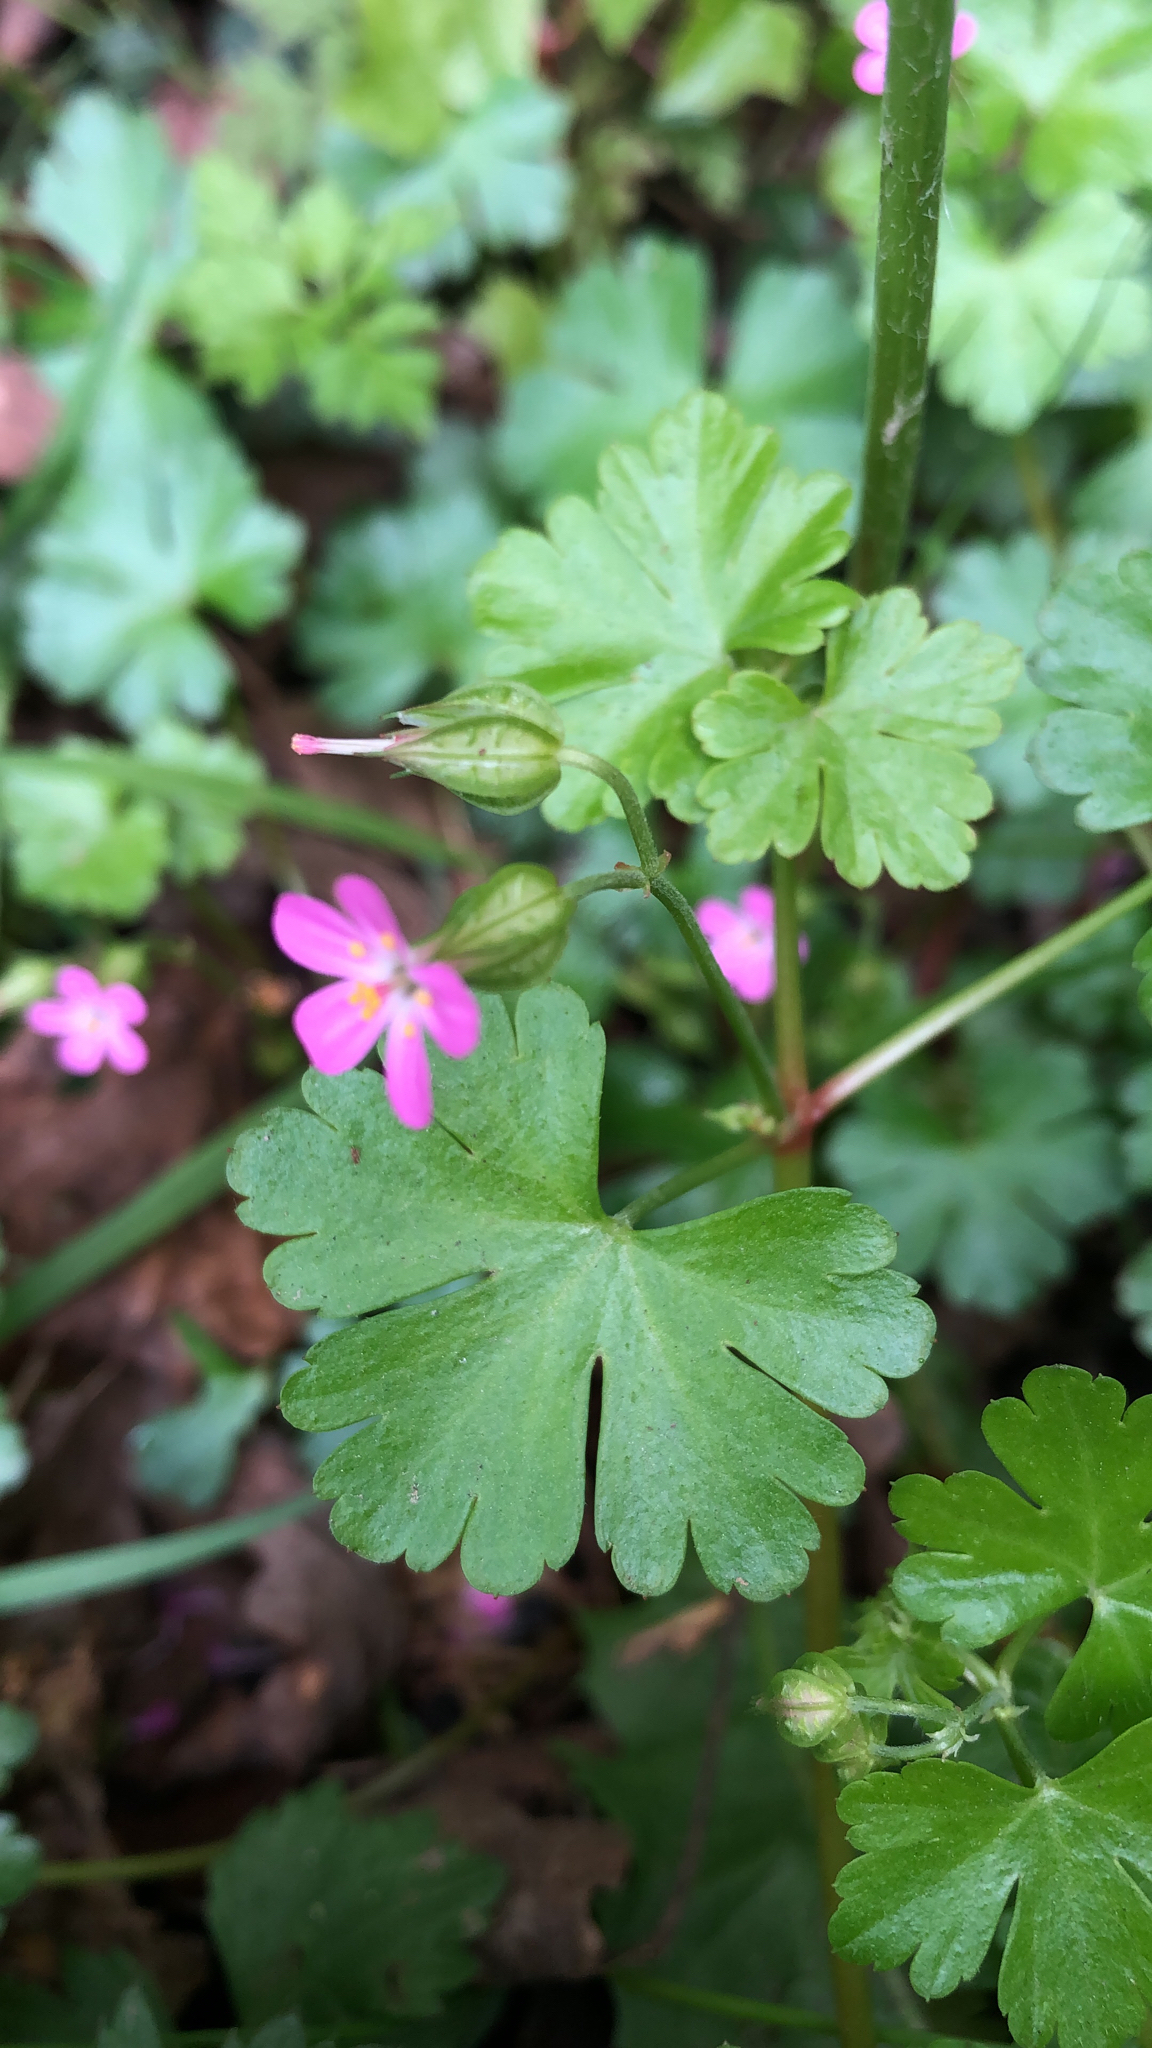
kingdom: Plantae
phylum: Tracheophyta
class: Magnoliopsida
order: Geraniales
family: Geraniaceae
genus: Geranium
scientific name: Geranium lucidum
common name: Shining crane's-bill
